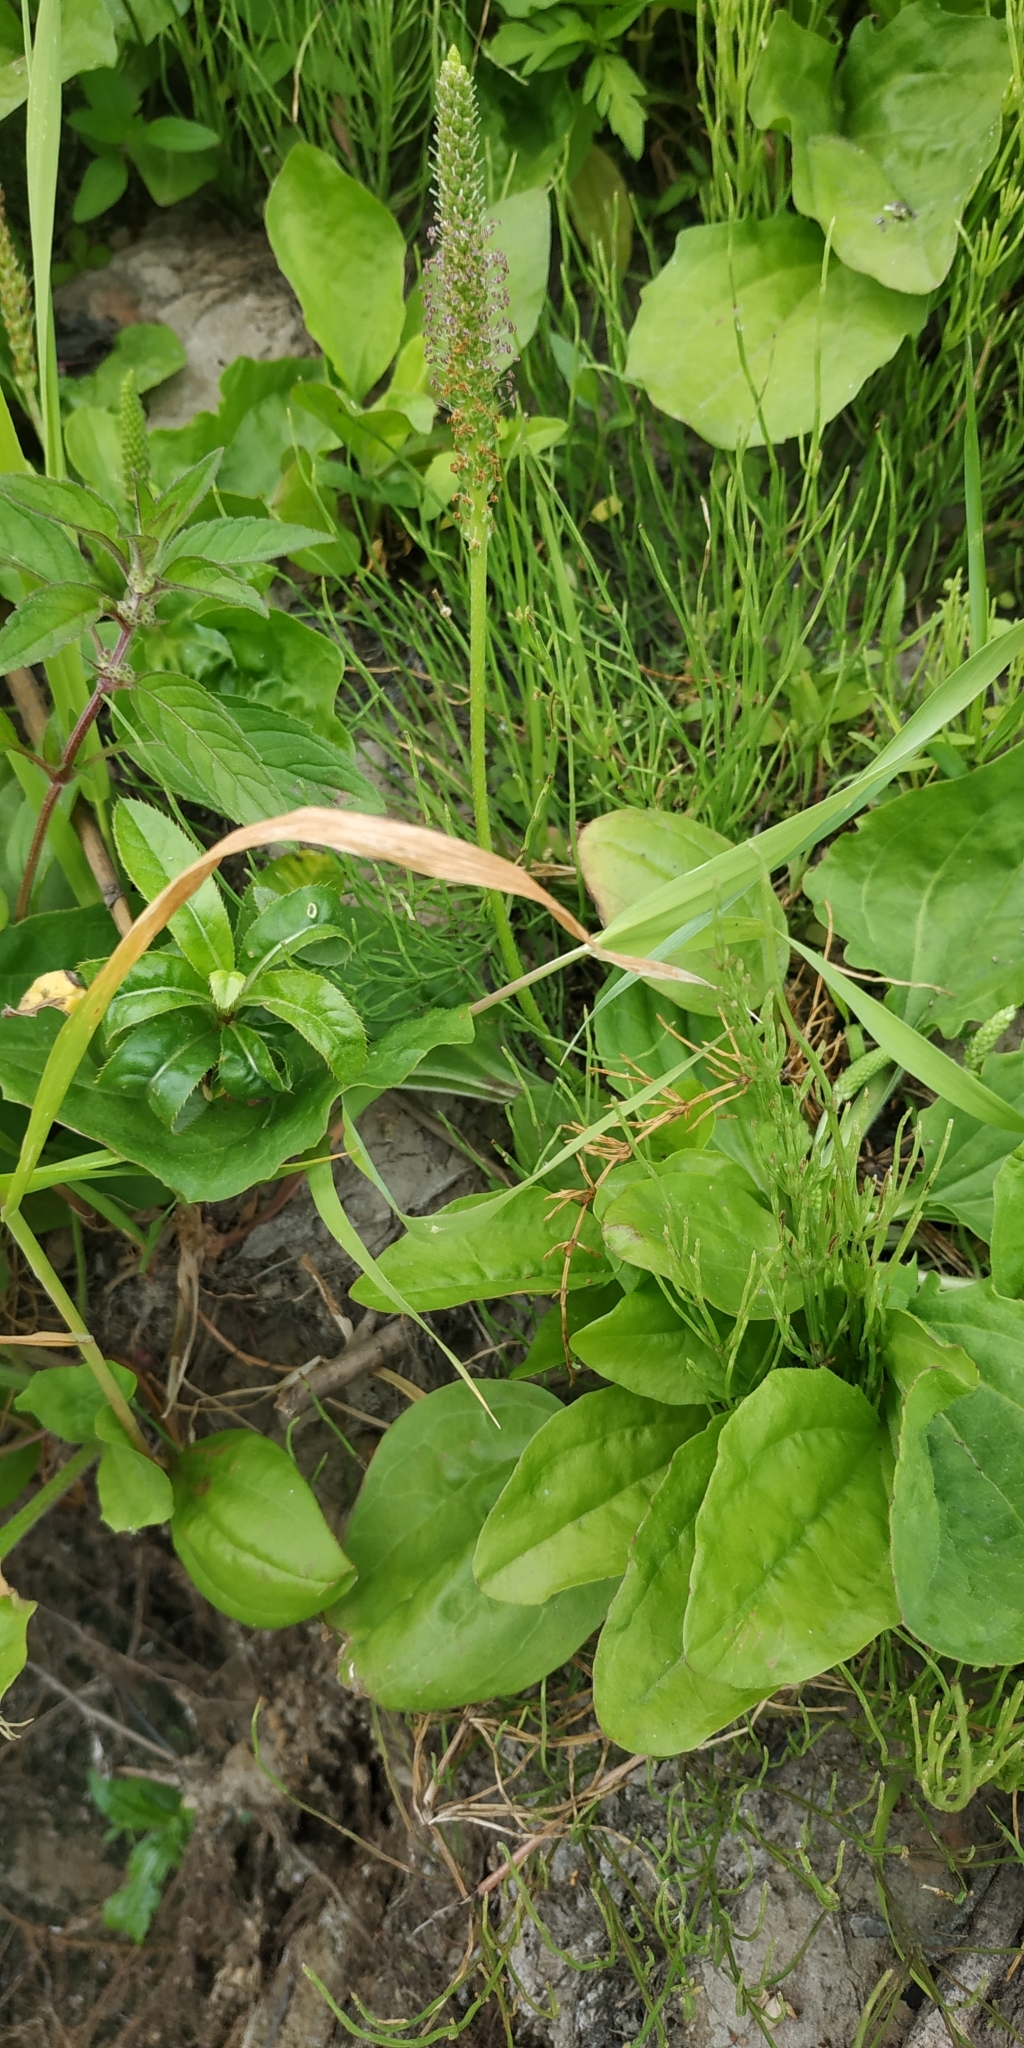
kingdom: Plantae
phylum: Tracheophyta
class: Magnoliopsida
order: Lamiales
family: Plantaginaceae
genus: Plantago
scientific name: Plantago uliginosa
